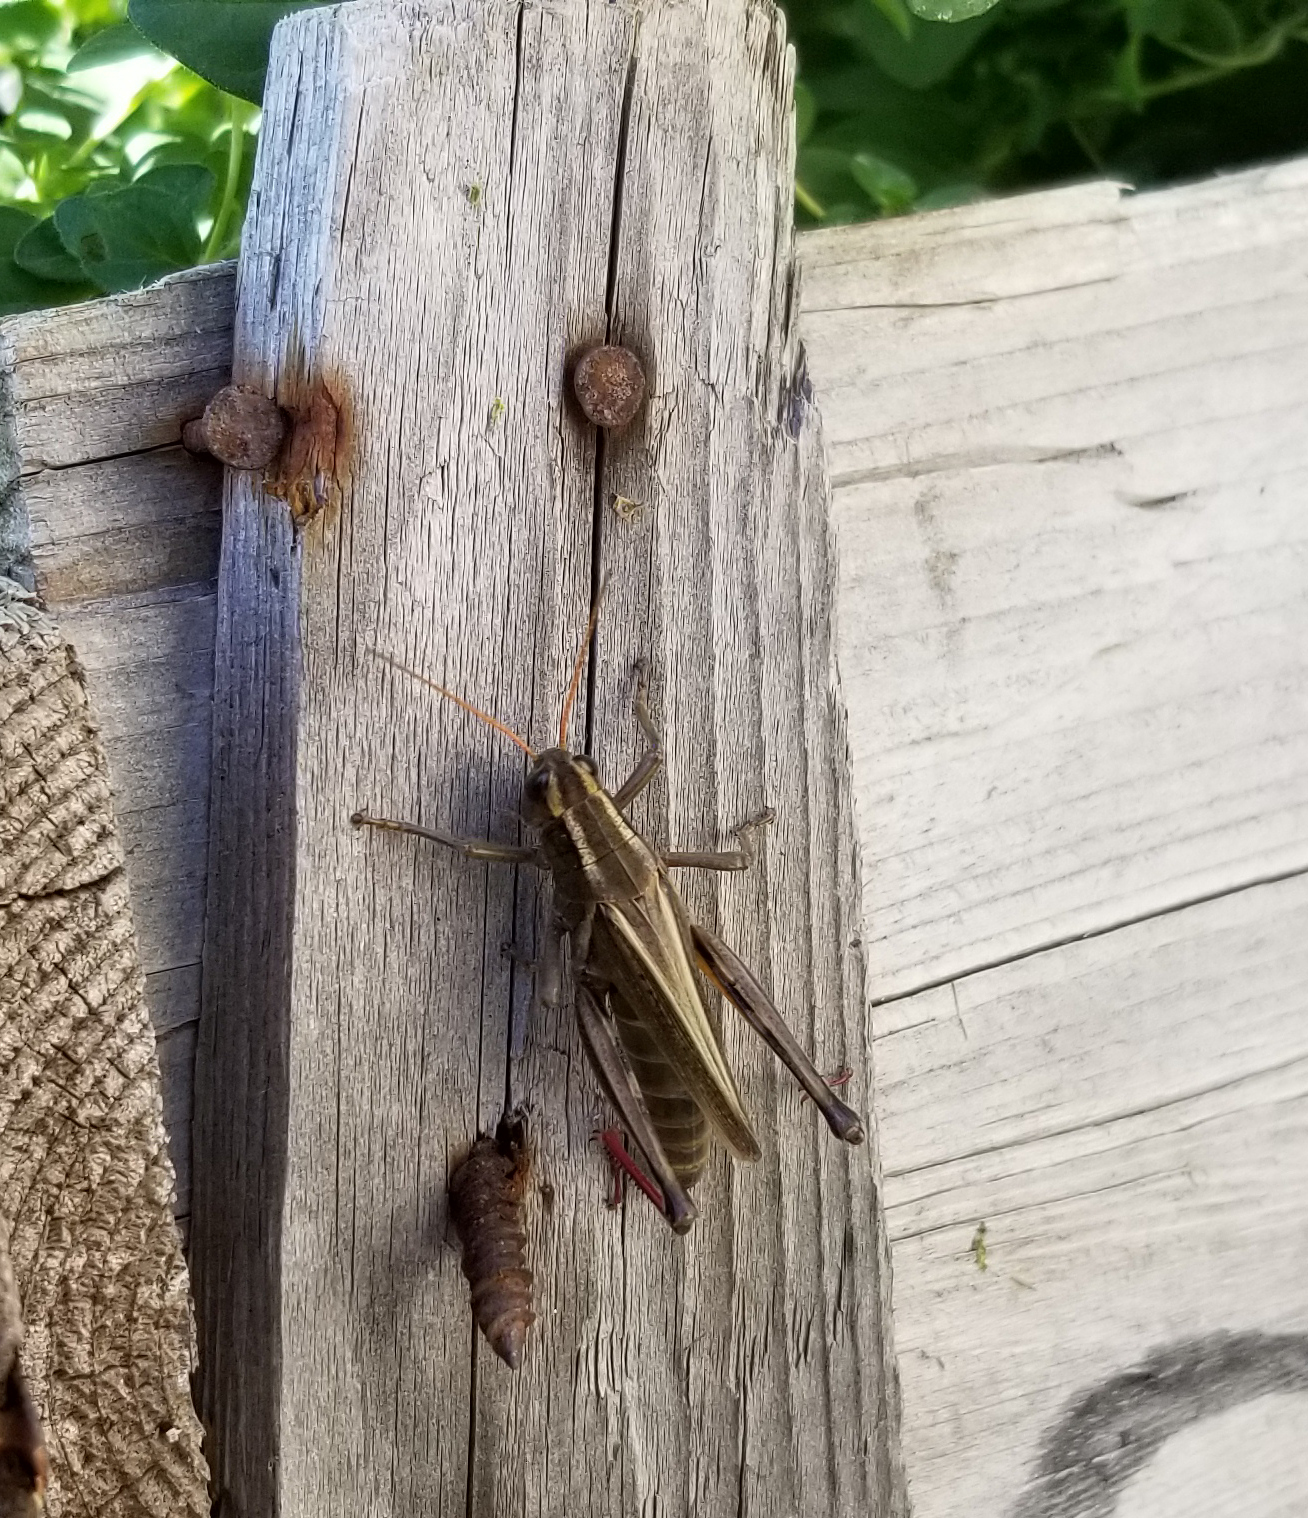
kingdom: Animalia
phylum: Arthropoda
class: Insecta
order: Orthoptera
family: Acrididae
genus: Melanoplus
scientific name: Melanoplus bivittatus
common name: Two-striped grasshopper
